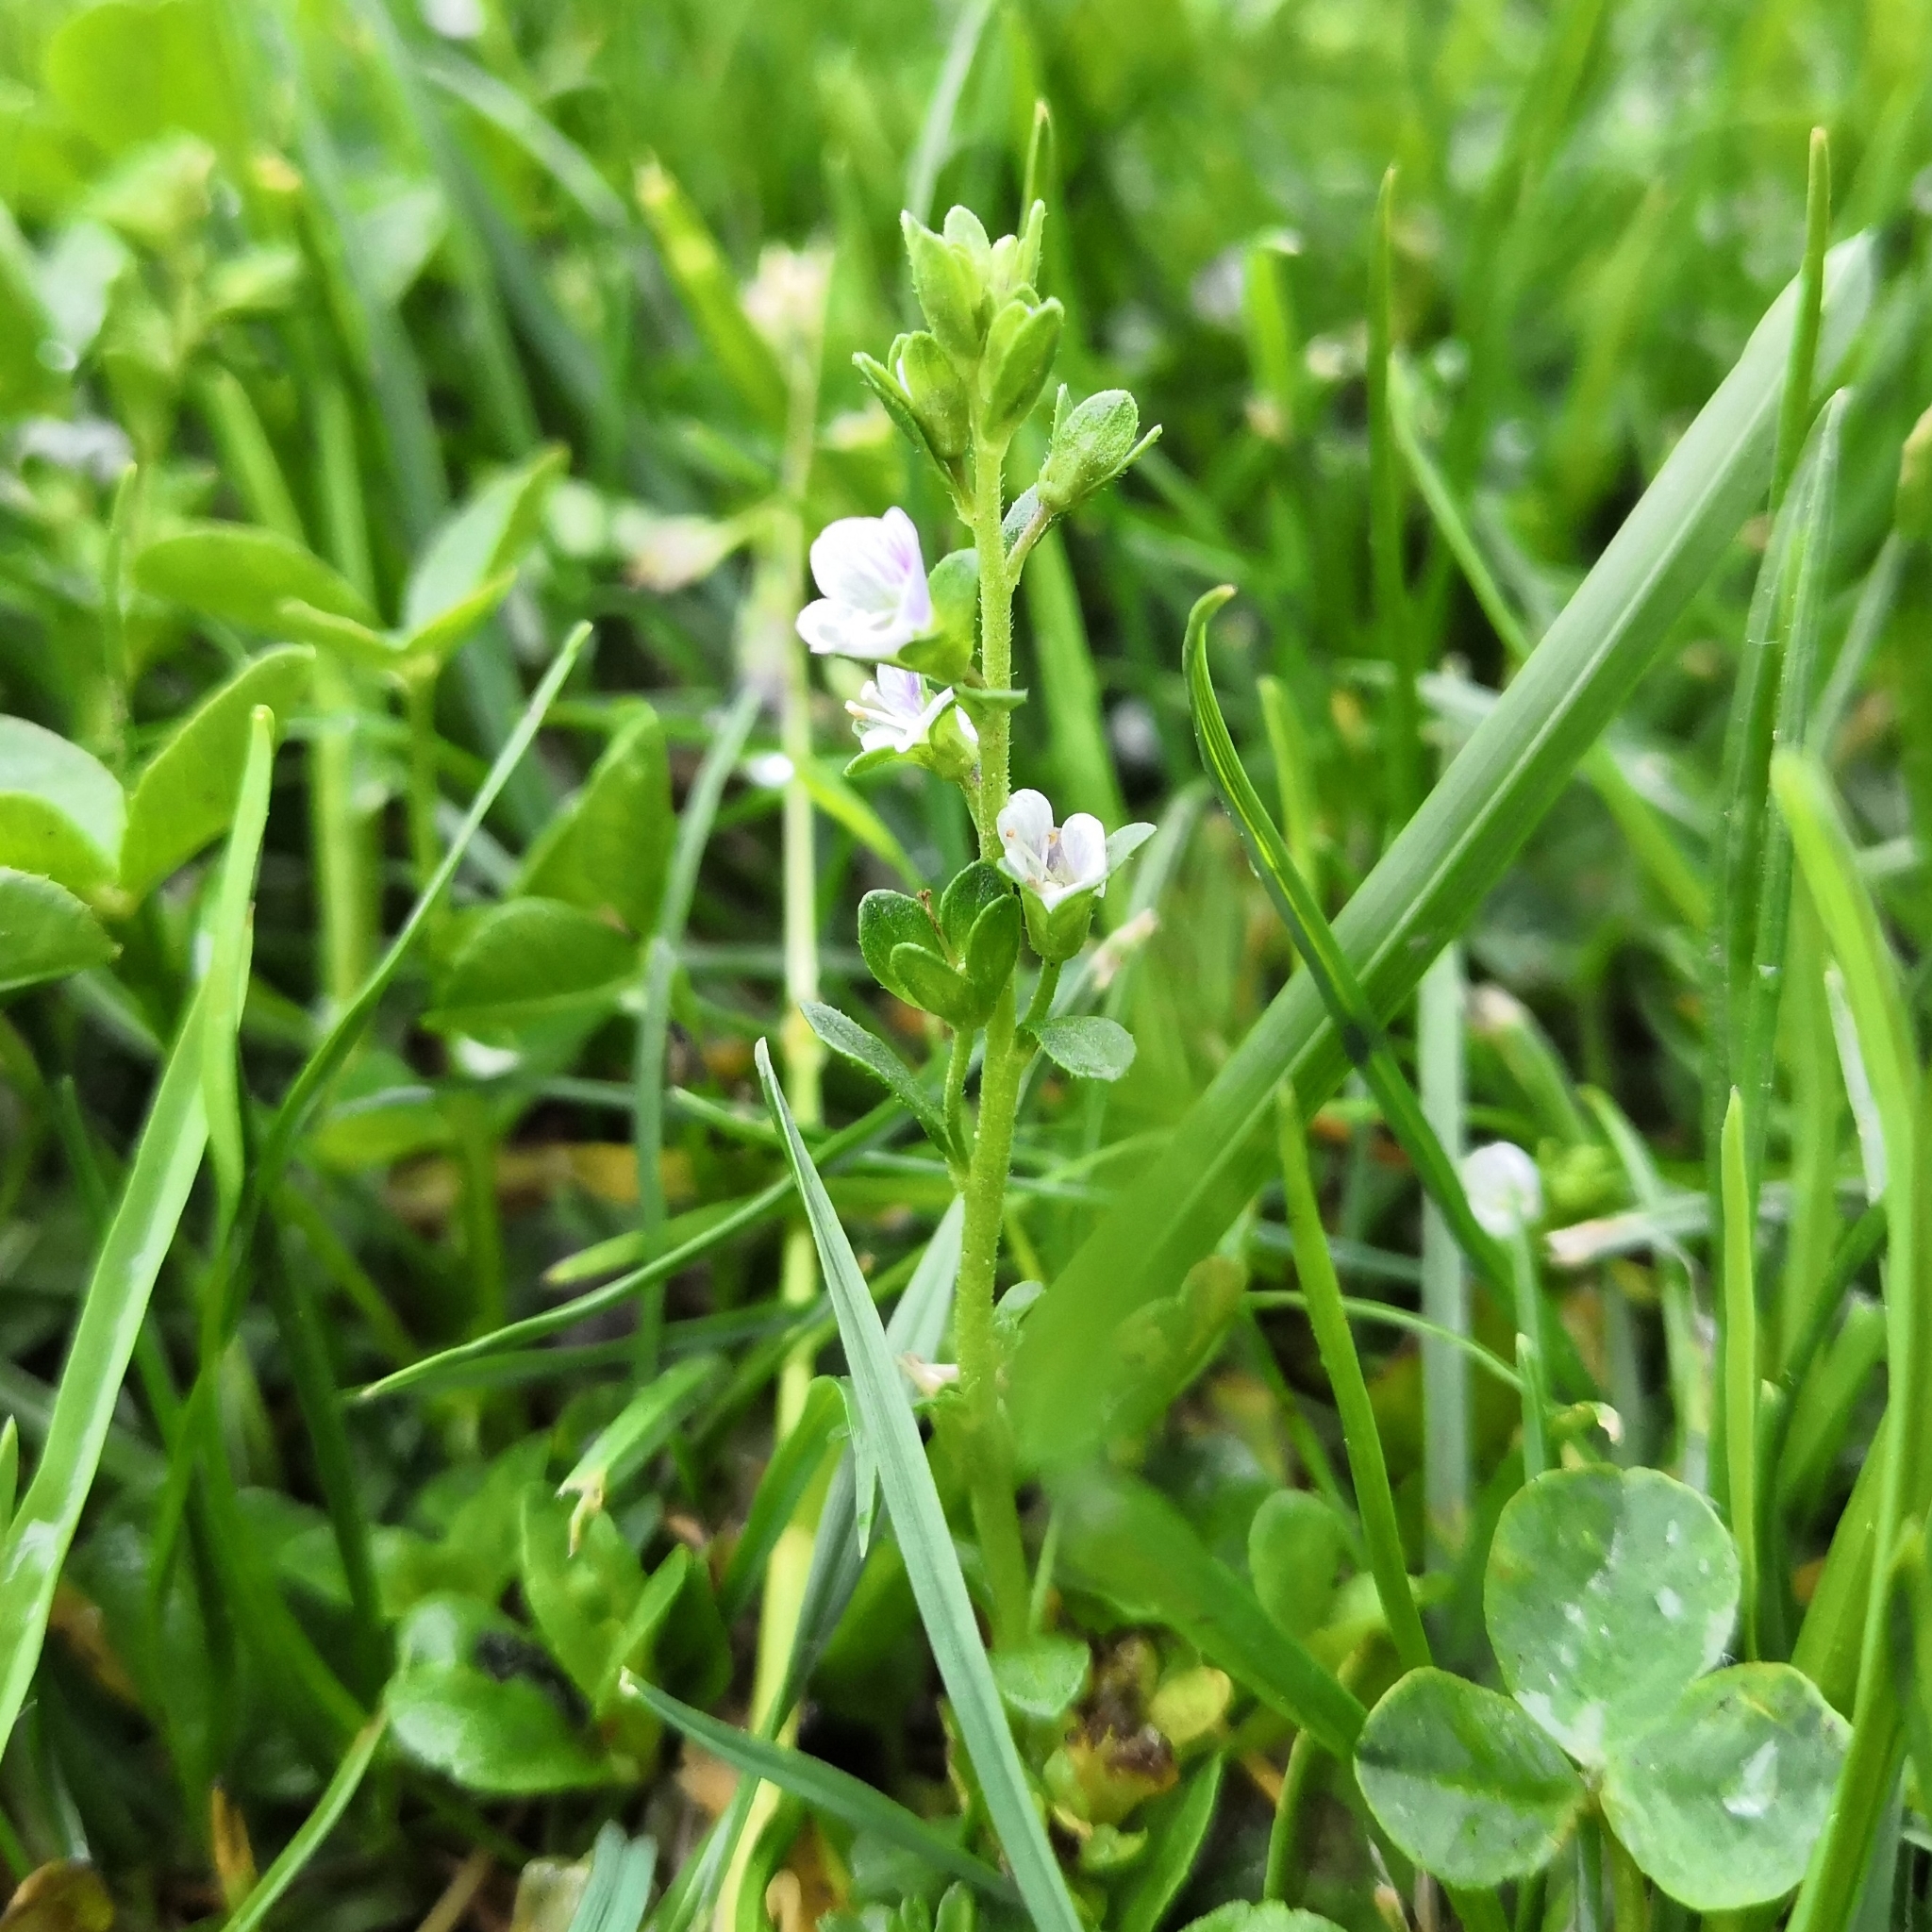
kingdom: Plantae
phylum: Tracheophyta
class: Magnoliopsida
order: Lamiales
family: Plantaginaceae
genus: Veronica
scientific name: Veronica serpyllifolia
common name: Thyme-leaved speedwell
